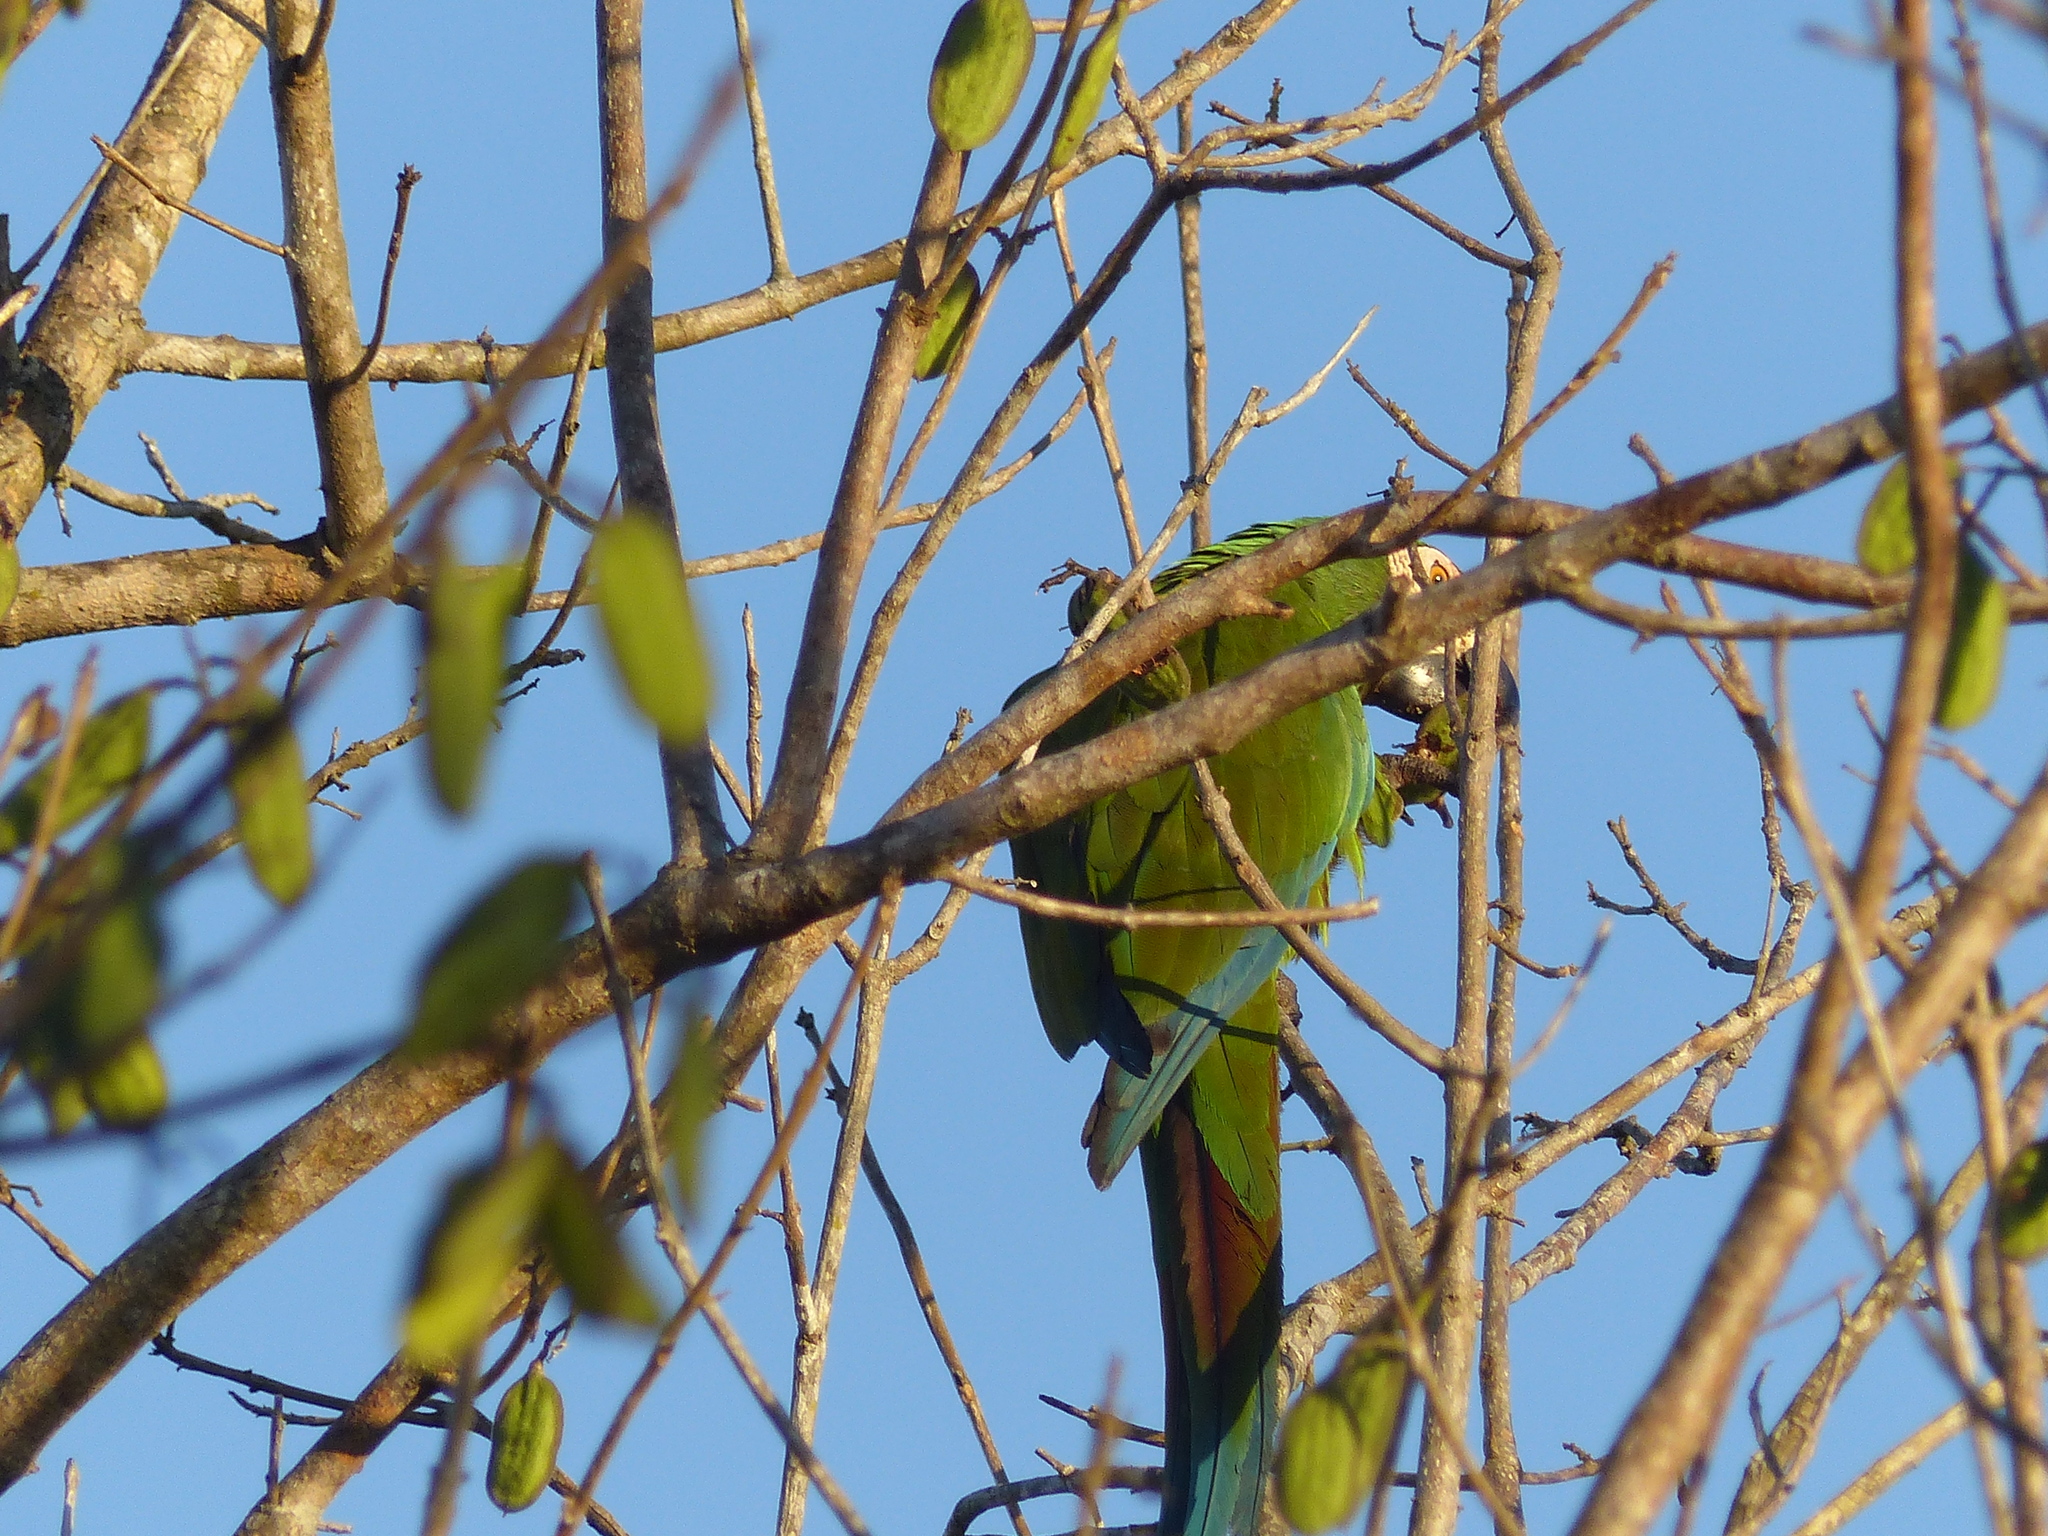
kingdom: Animalia
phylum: Chordata
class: Aves
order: Psittaciformes
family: Psittacidae
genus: Ara
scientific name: Ara severus
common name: Chestnut-fronted macaw
